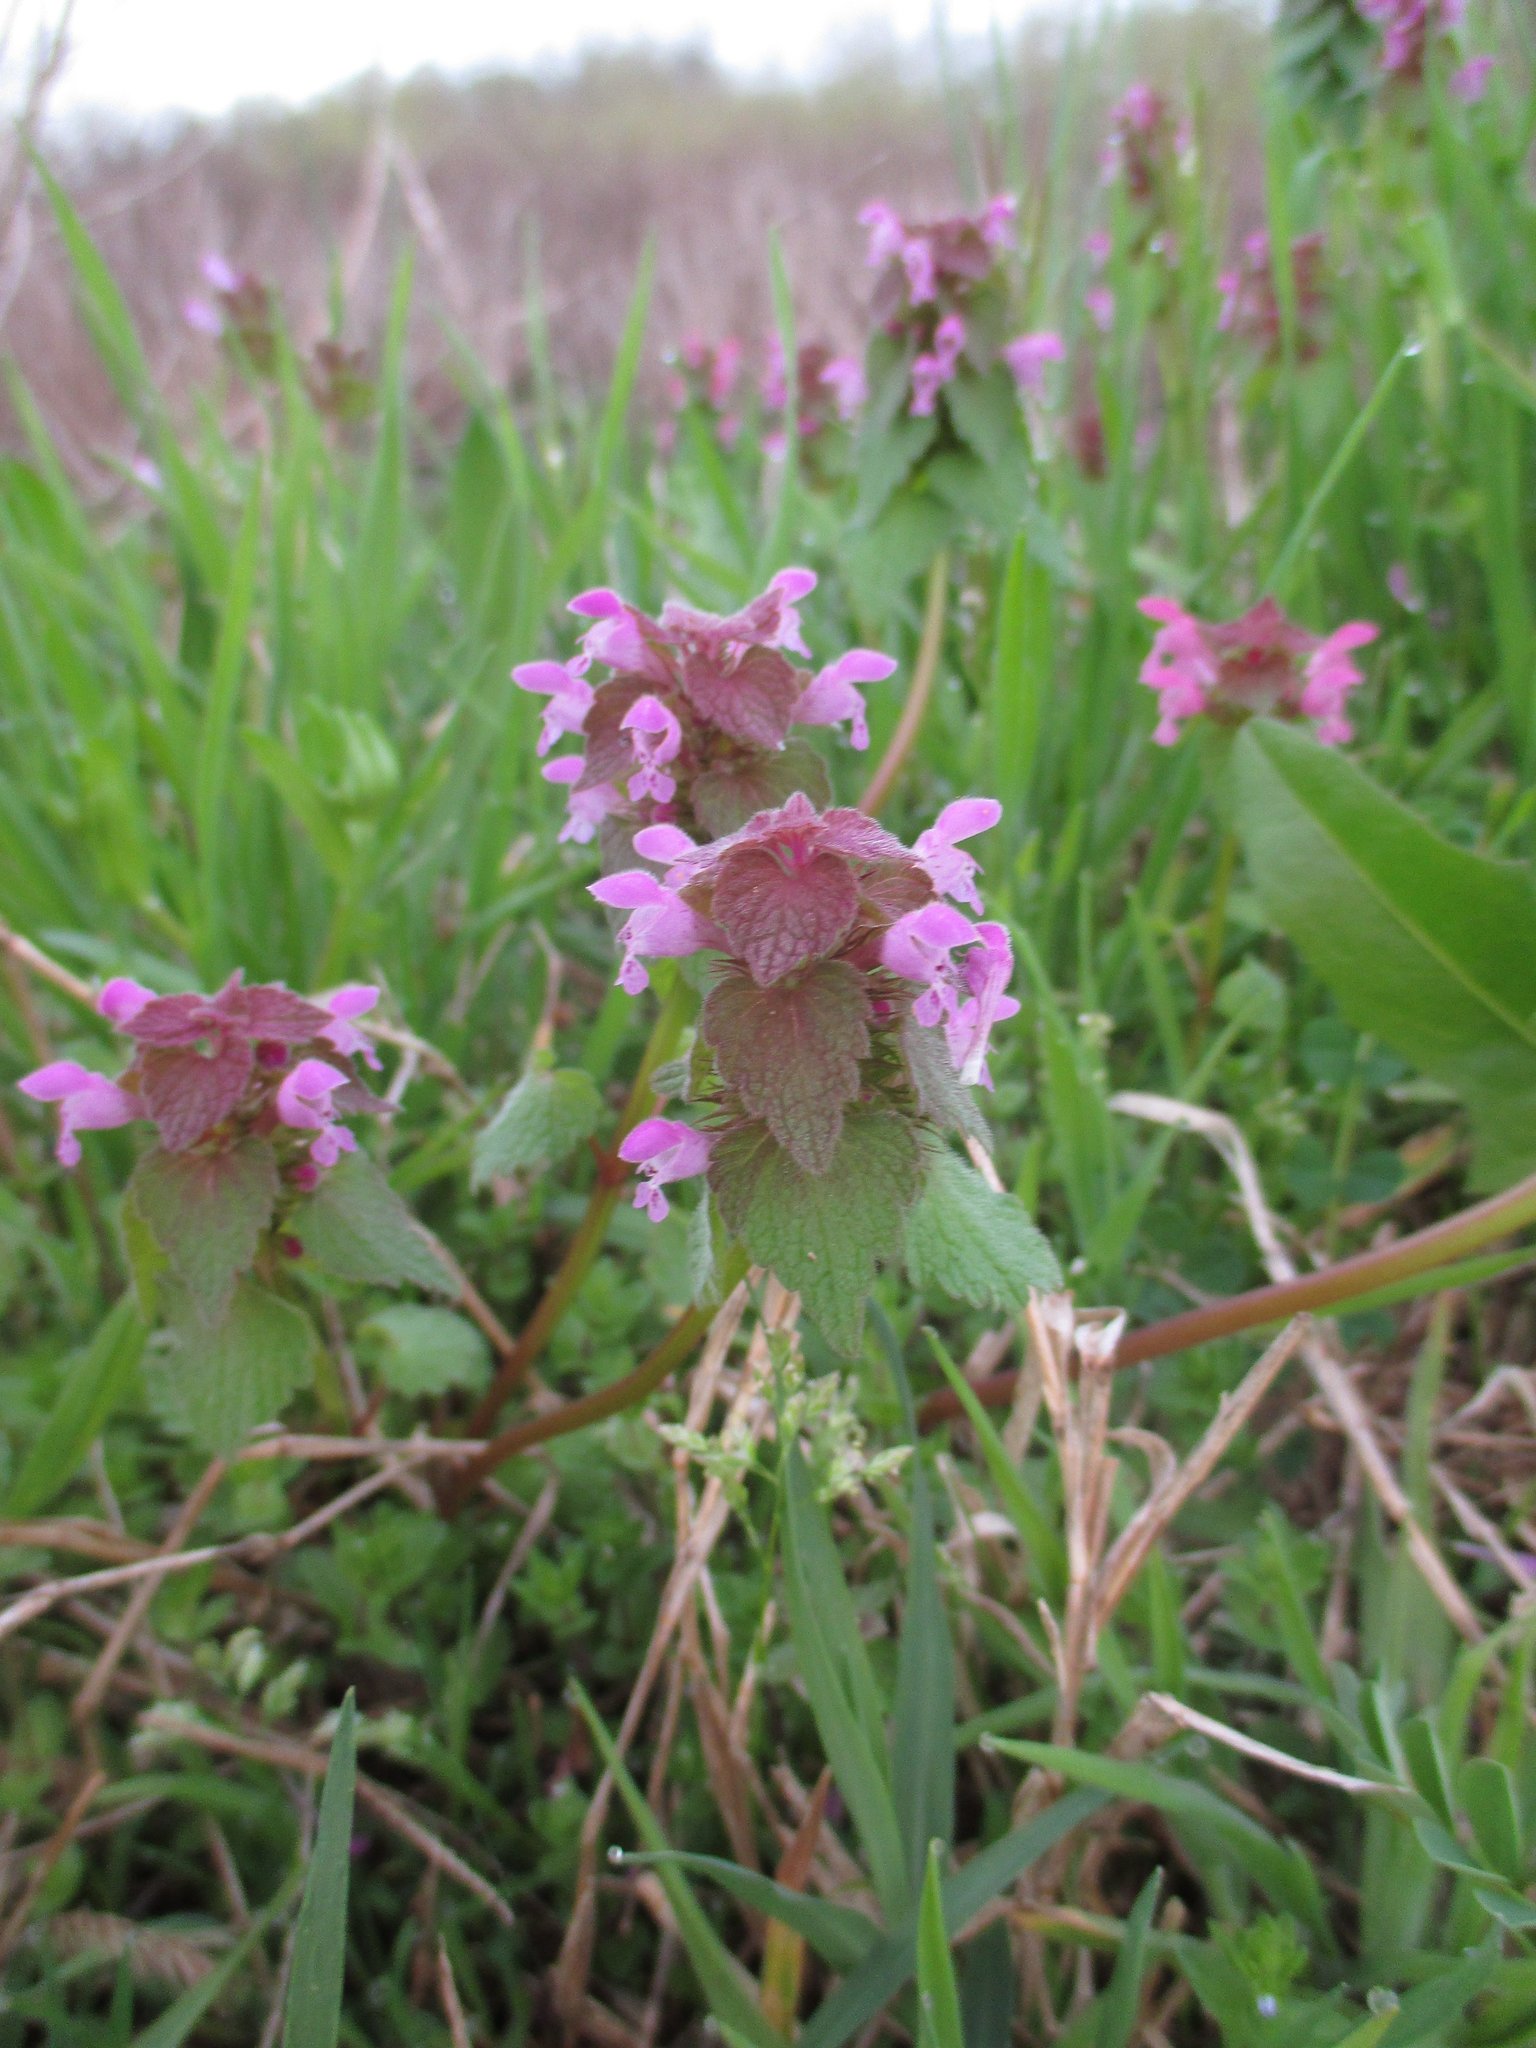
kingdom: Plantae
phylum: Tracheophyta
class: Magnoliopsida
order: Lamiales
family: Lamiaceae
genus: Lamium
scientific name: Lamium purpureum
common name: Red dead-nettle
